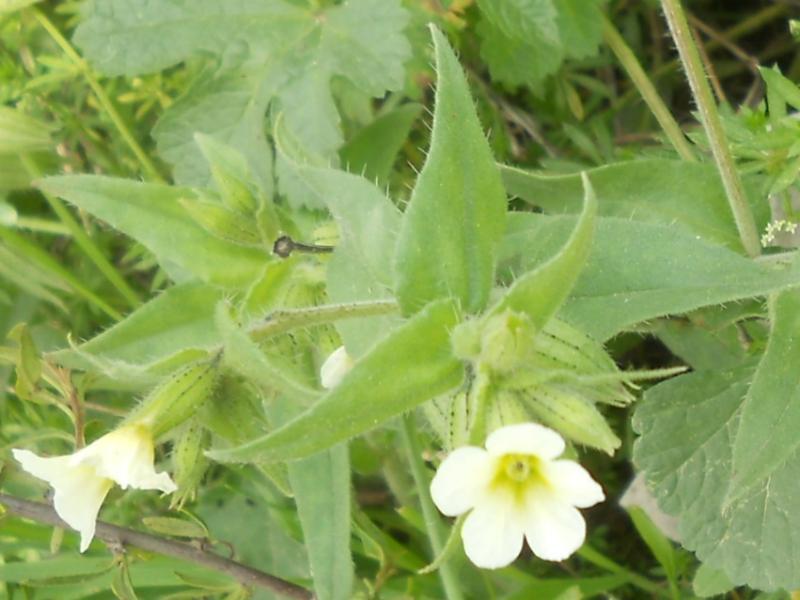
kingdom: Plantae
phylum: Tracheophyta
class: Magnoliopsida
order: Boraginales
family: Boraginaceae
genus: Nonea
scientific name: Nonea lutea
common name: Yellow nonea
